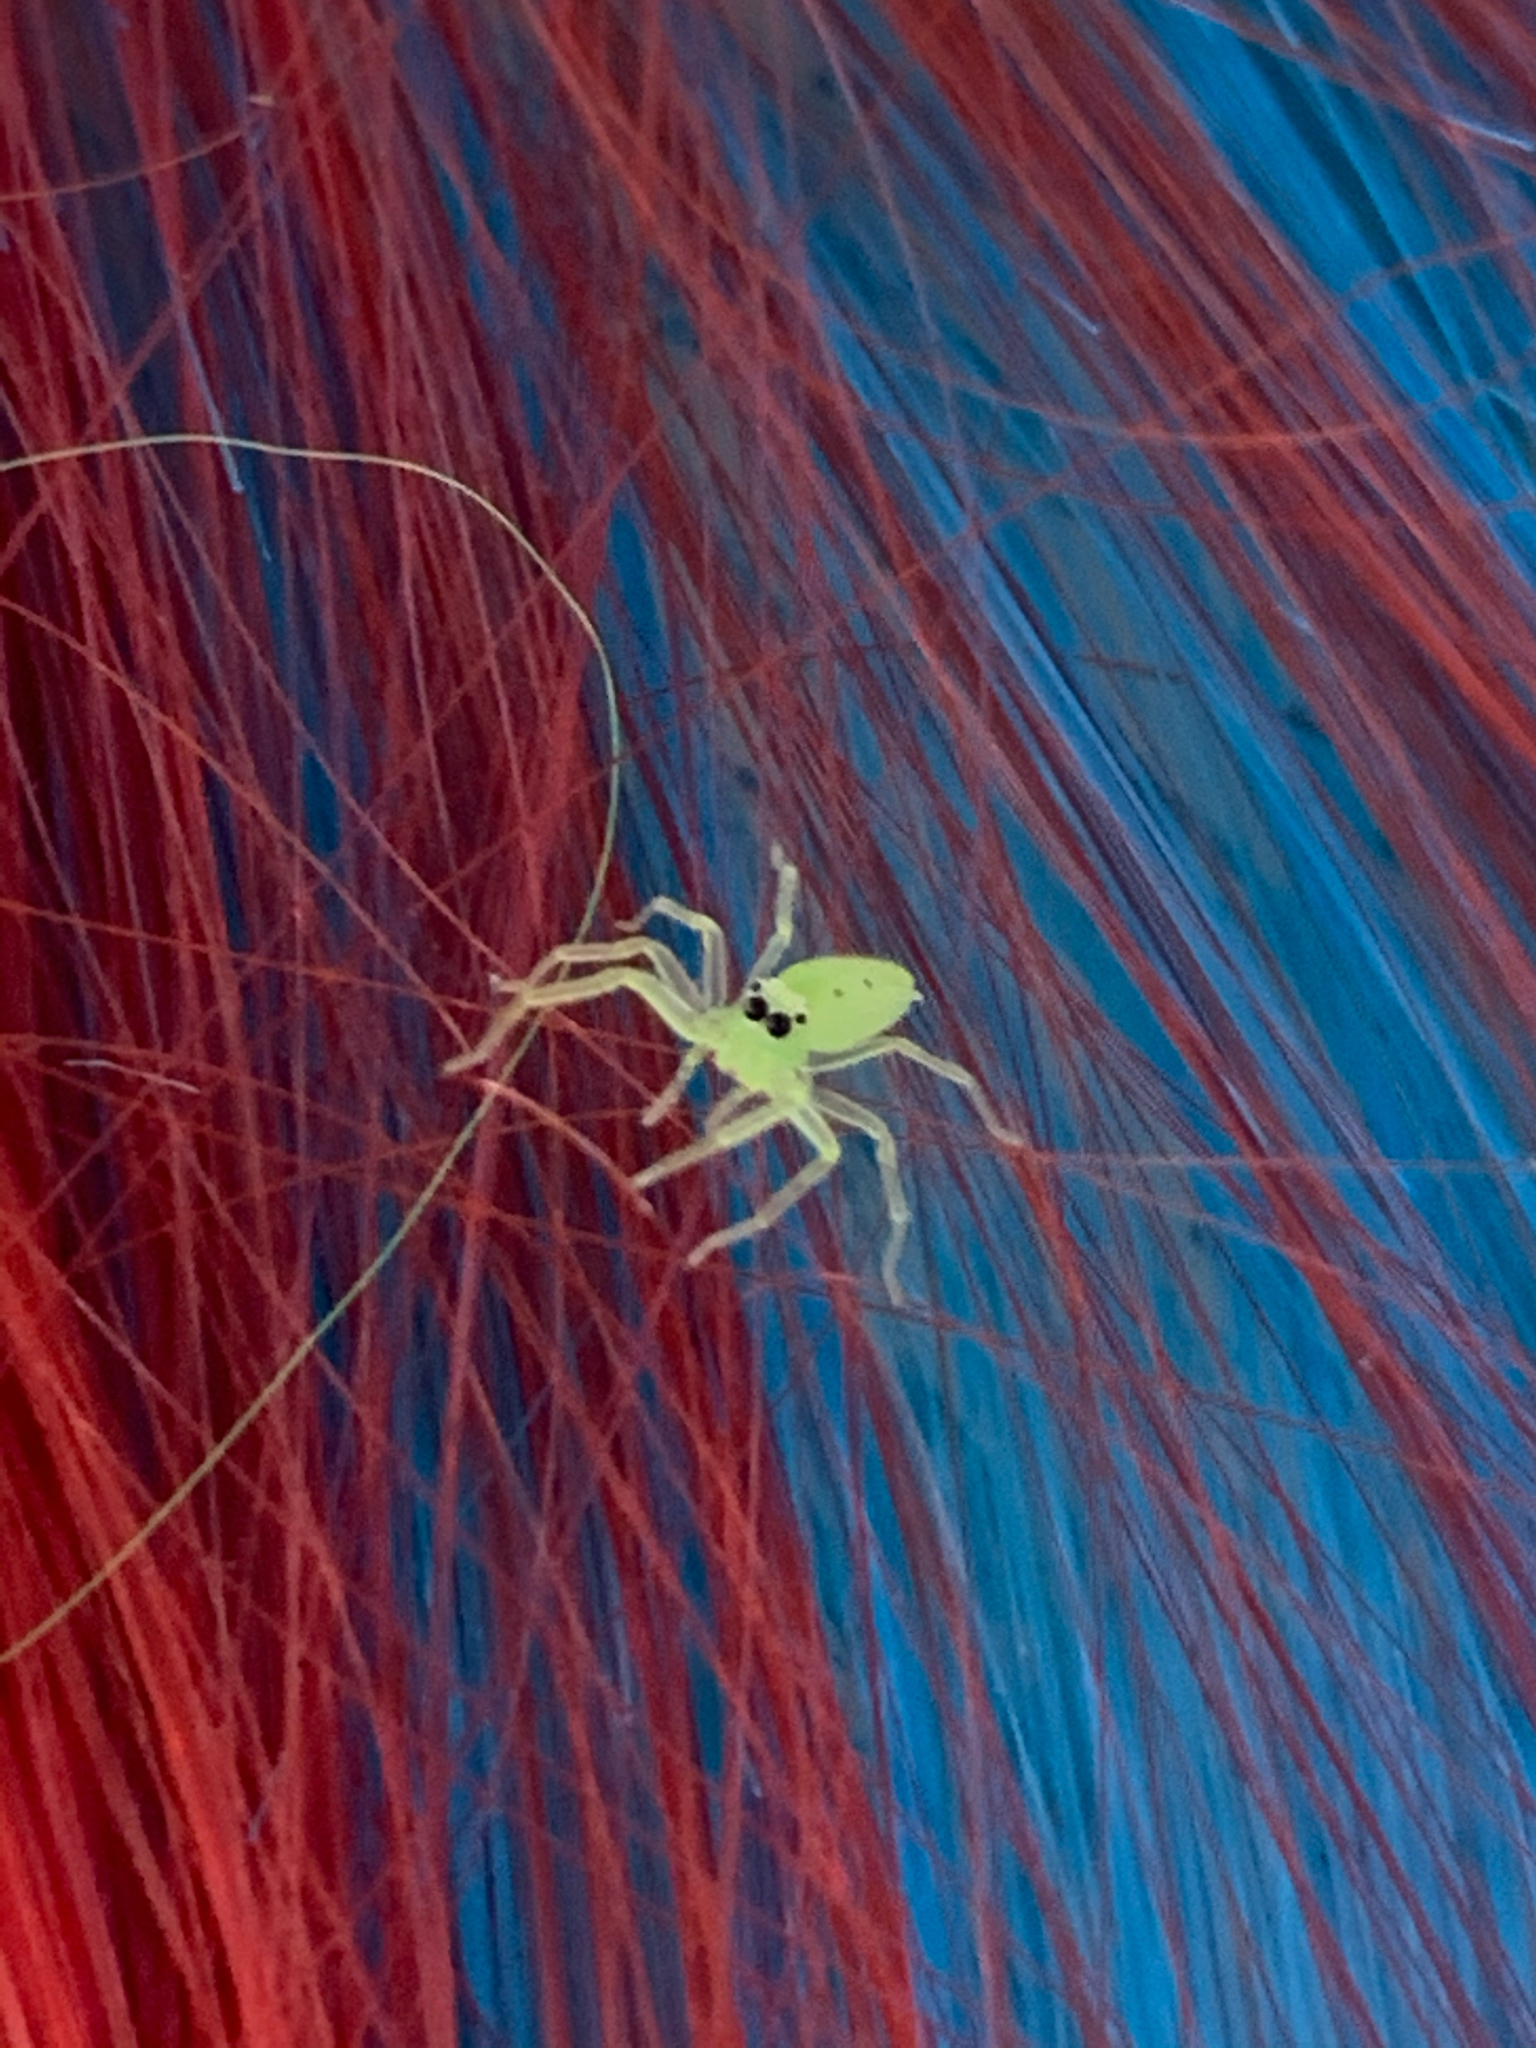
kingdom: Animalia
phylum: Arthropoda
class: Arachnida
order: Araneae
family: Salticidae
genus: Lyssomanes
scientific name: Lyssomanes viridis
